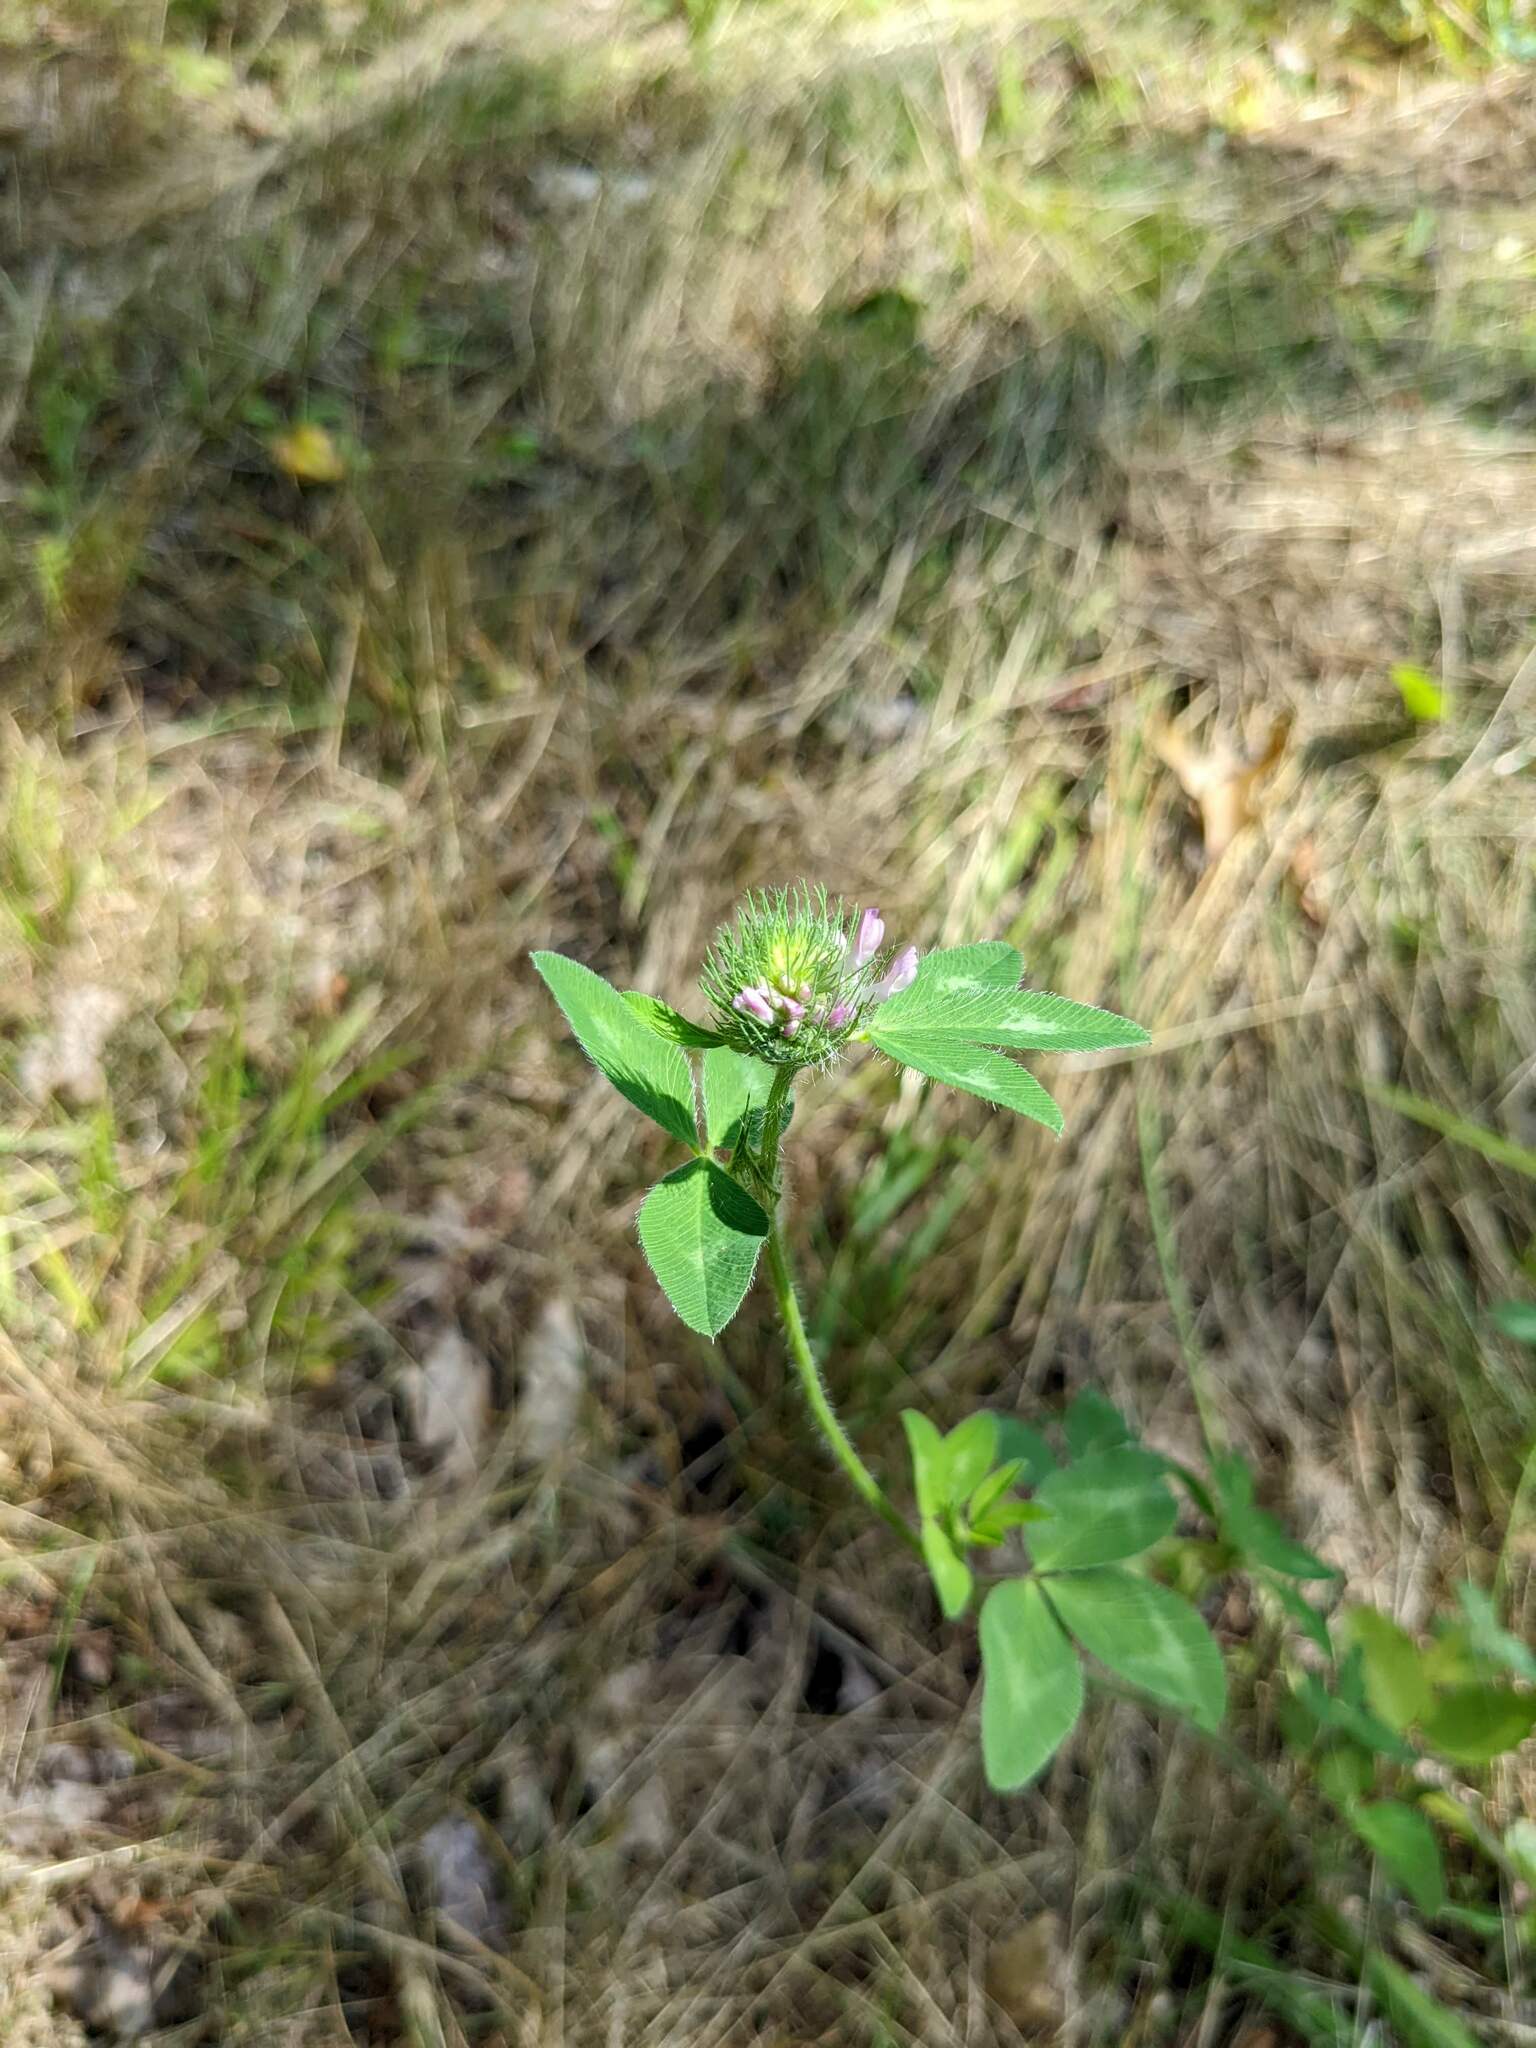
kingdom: Plantae
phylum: Tracheophyta
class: Magnoliopsida
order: Fabales
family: Fabaceae
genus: Trifolium
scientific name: Trifolium pratense
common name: Red clover
